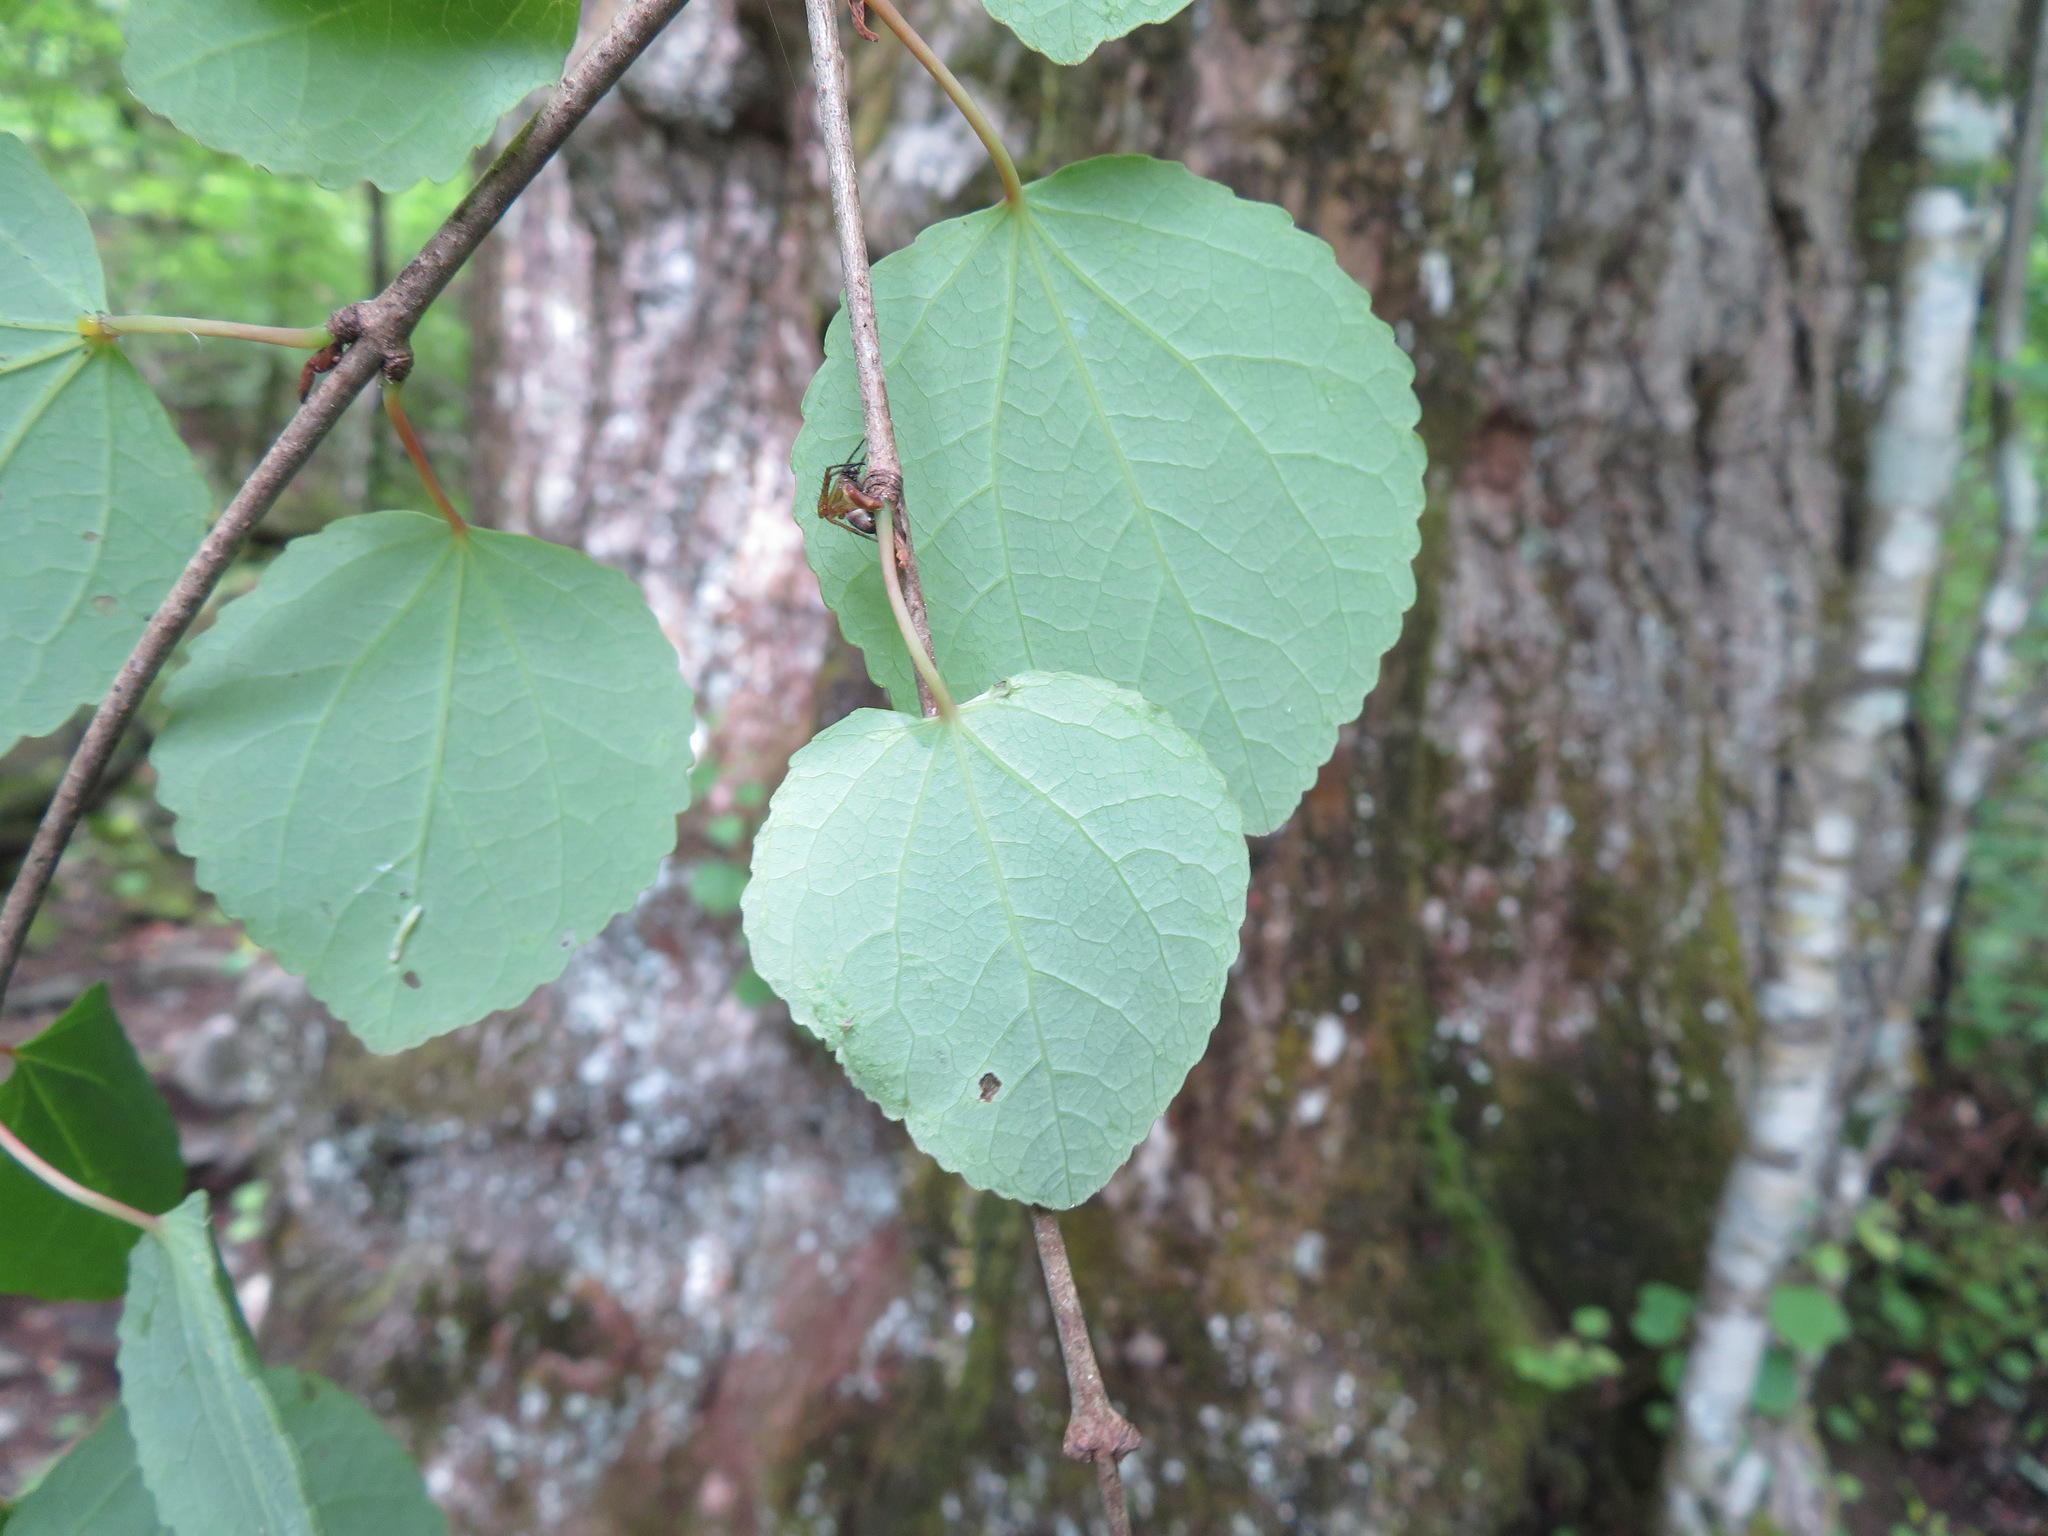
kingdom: Plantae
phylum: Tracheophyta
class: Magnoliopsida
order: Saxifragales
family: Cercidiphyllaceae
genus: Cercidiphyllum
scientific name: Cercidiphyllum japonicum
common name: Katsura tree
